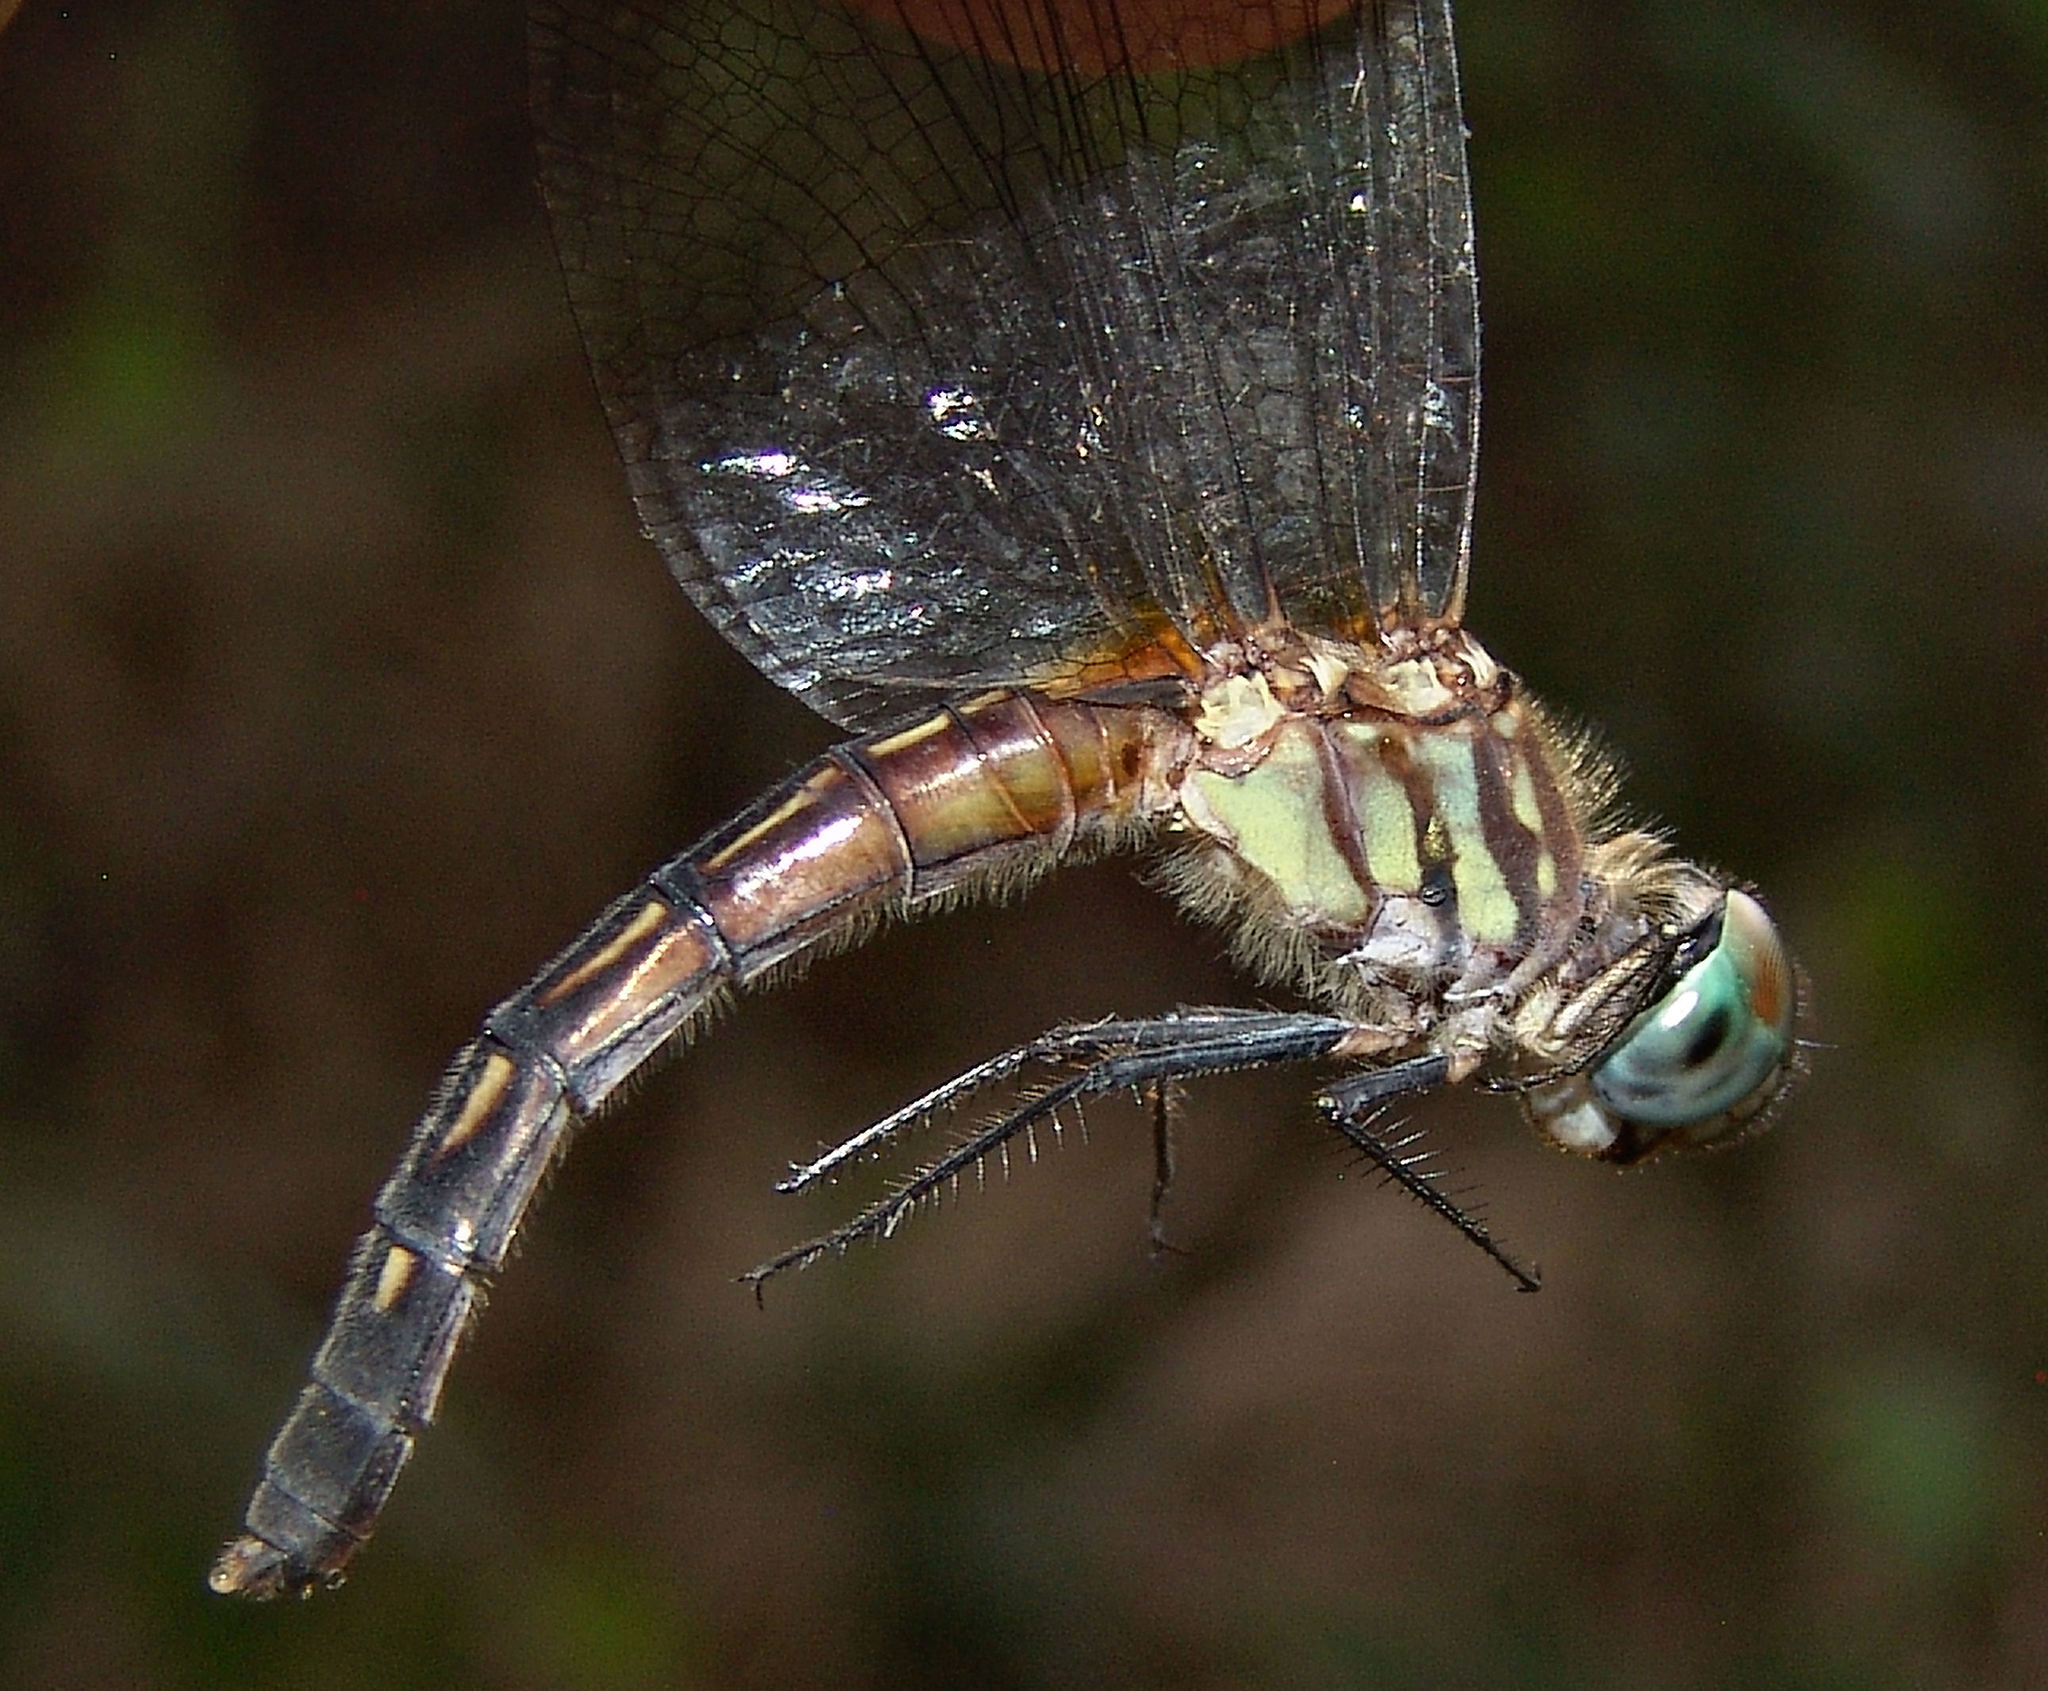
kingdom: Animalia
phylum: Arthropoda
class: Insecta
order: Odonata
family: Libellulidae
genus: Pachydiplax
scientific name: Pachydiplax longipennis
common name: Blue dasher
